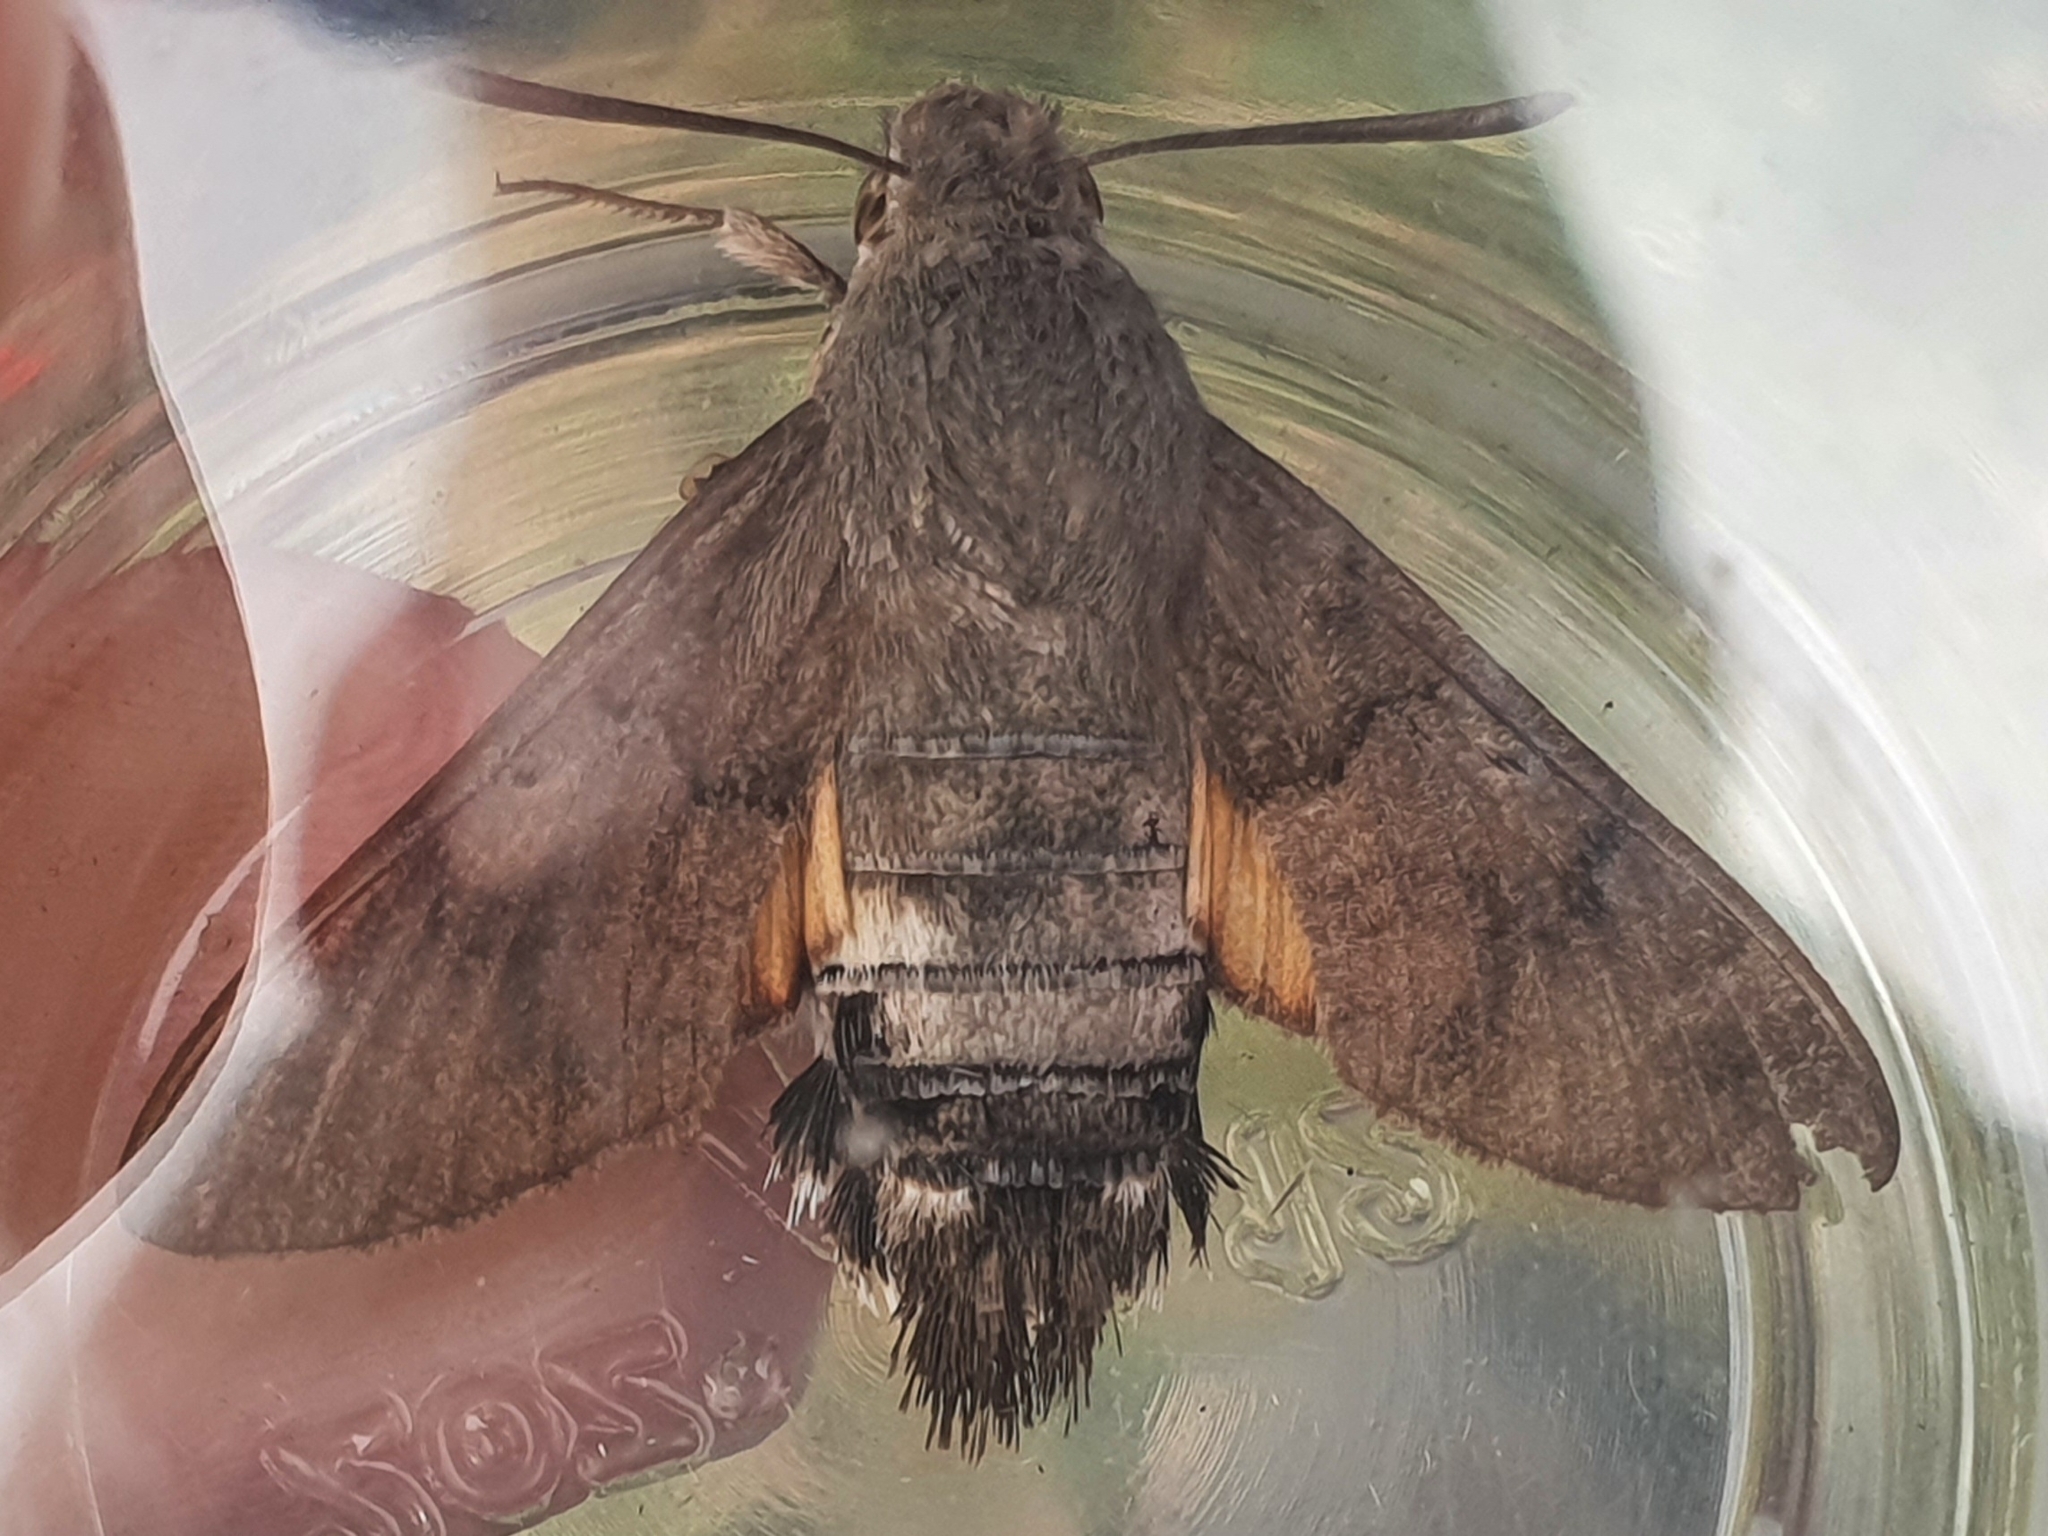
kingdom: Animalia
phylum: Arthropoda
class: Insecta
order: Lepidoptera
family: Sphingidae
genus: Macroglossum
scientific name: Macroglossum stellatarum
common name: Humming-bird hawk-moth
